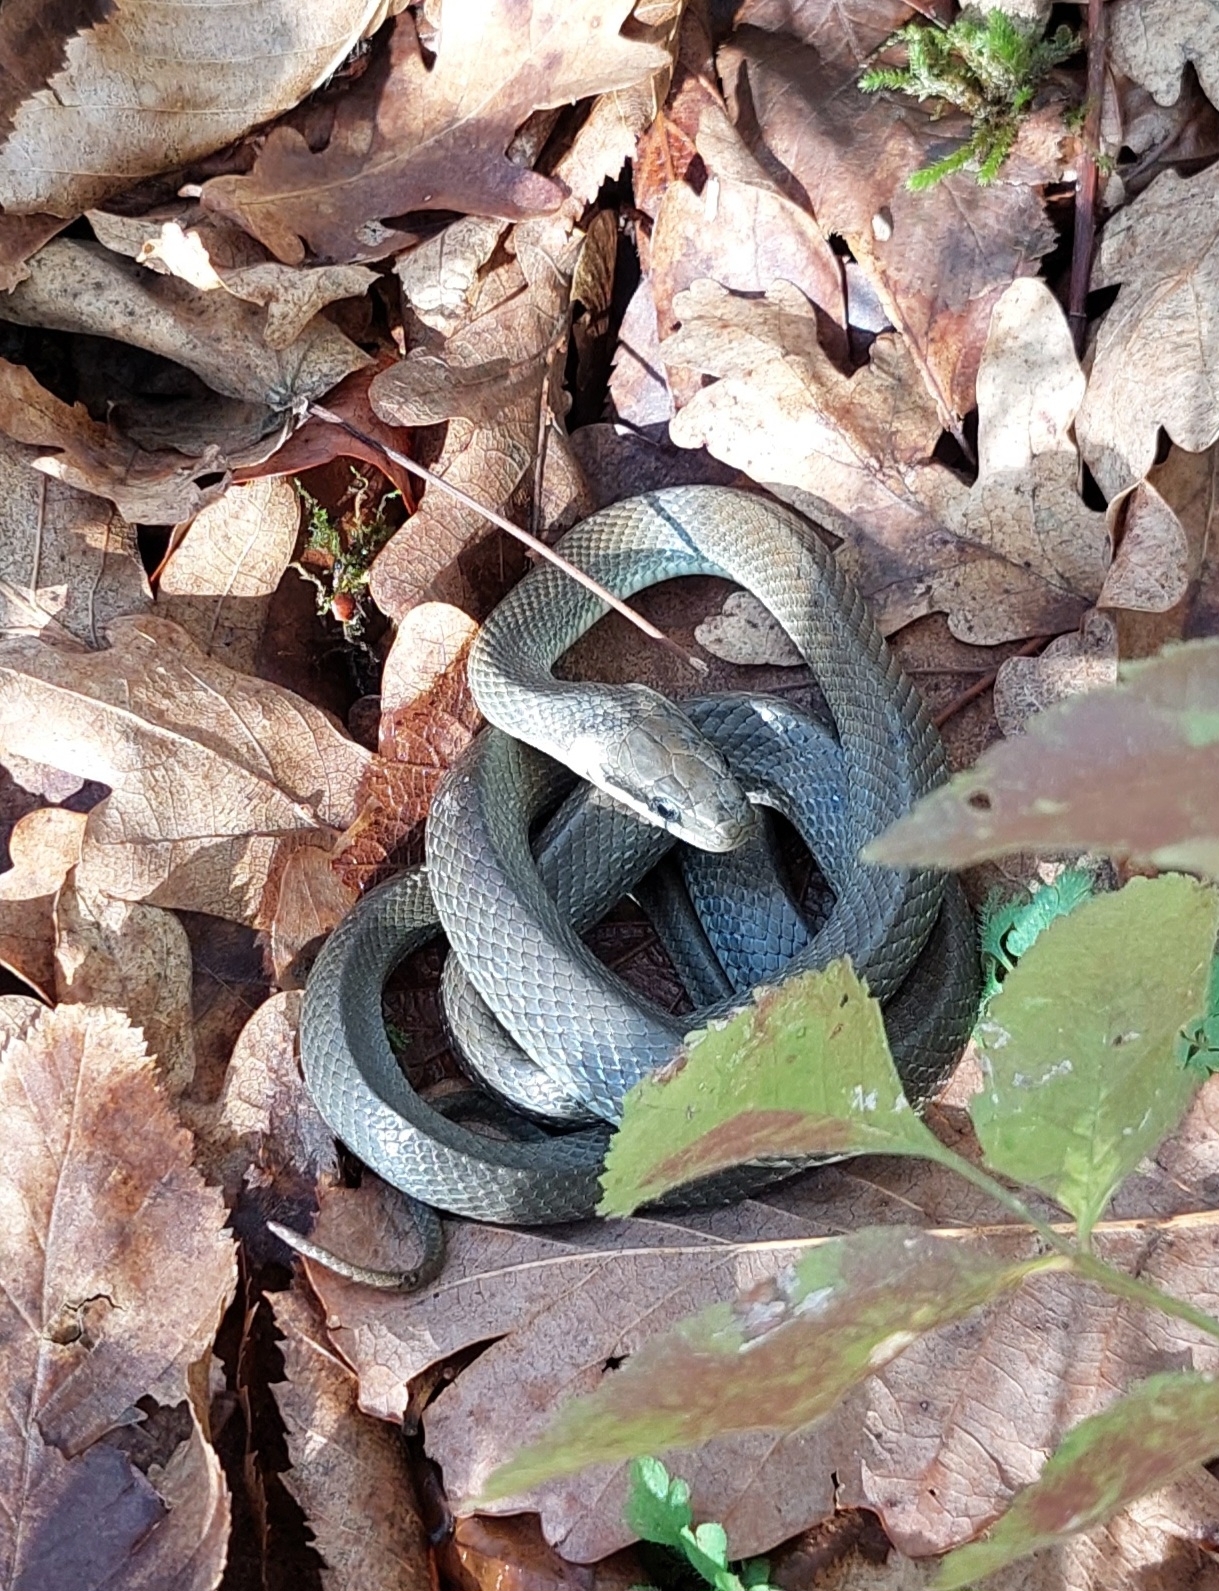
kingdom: Animalia
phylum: Chordata
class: Squamata
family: Colubridae
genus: Zamenis
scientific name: Zamenis longissimus
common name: Aesculapean snake
